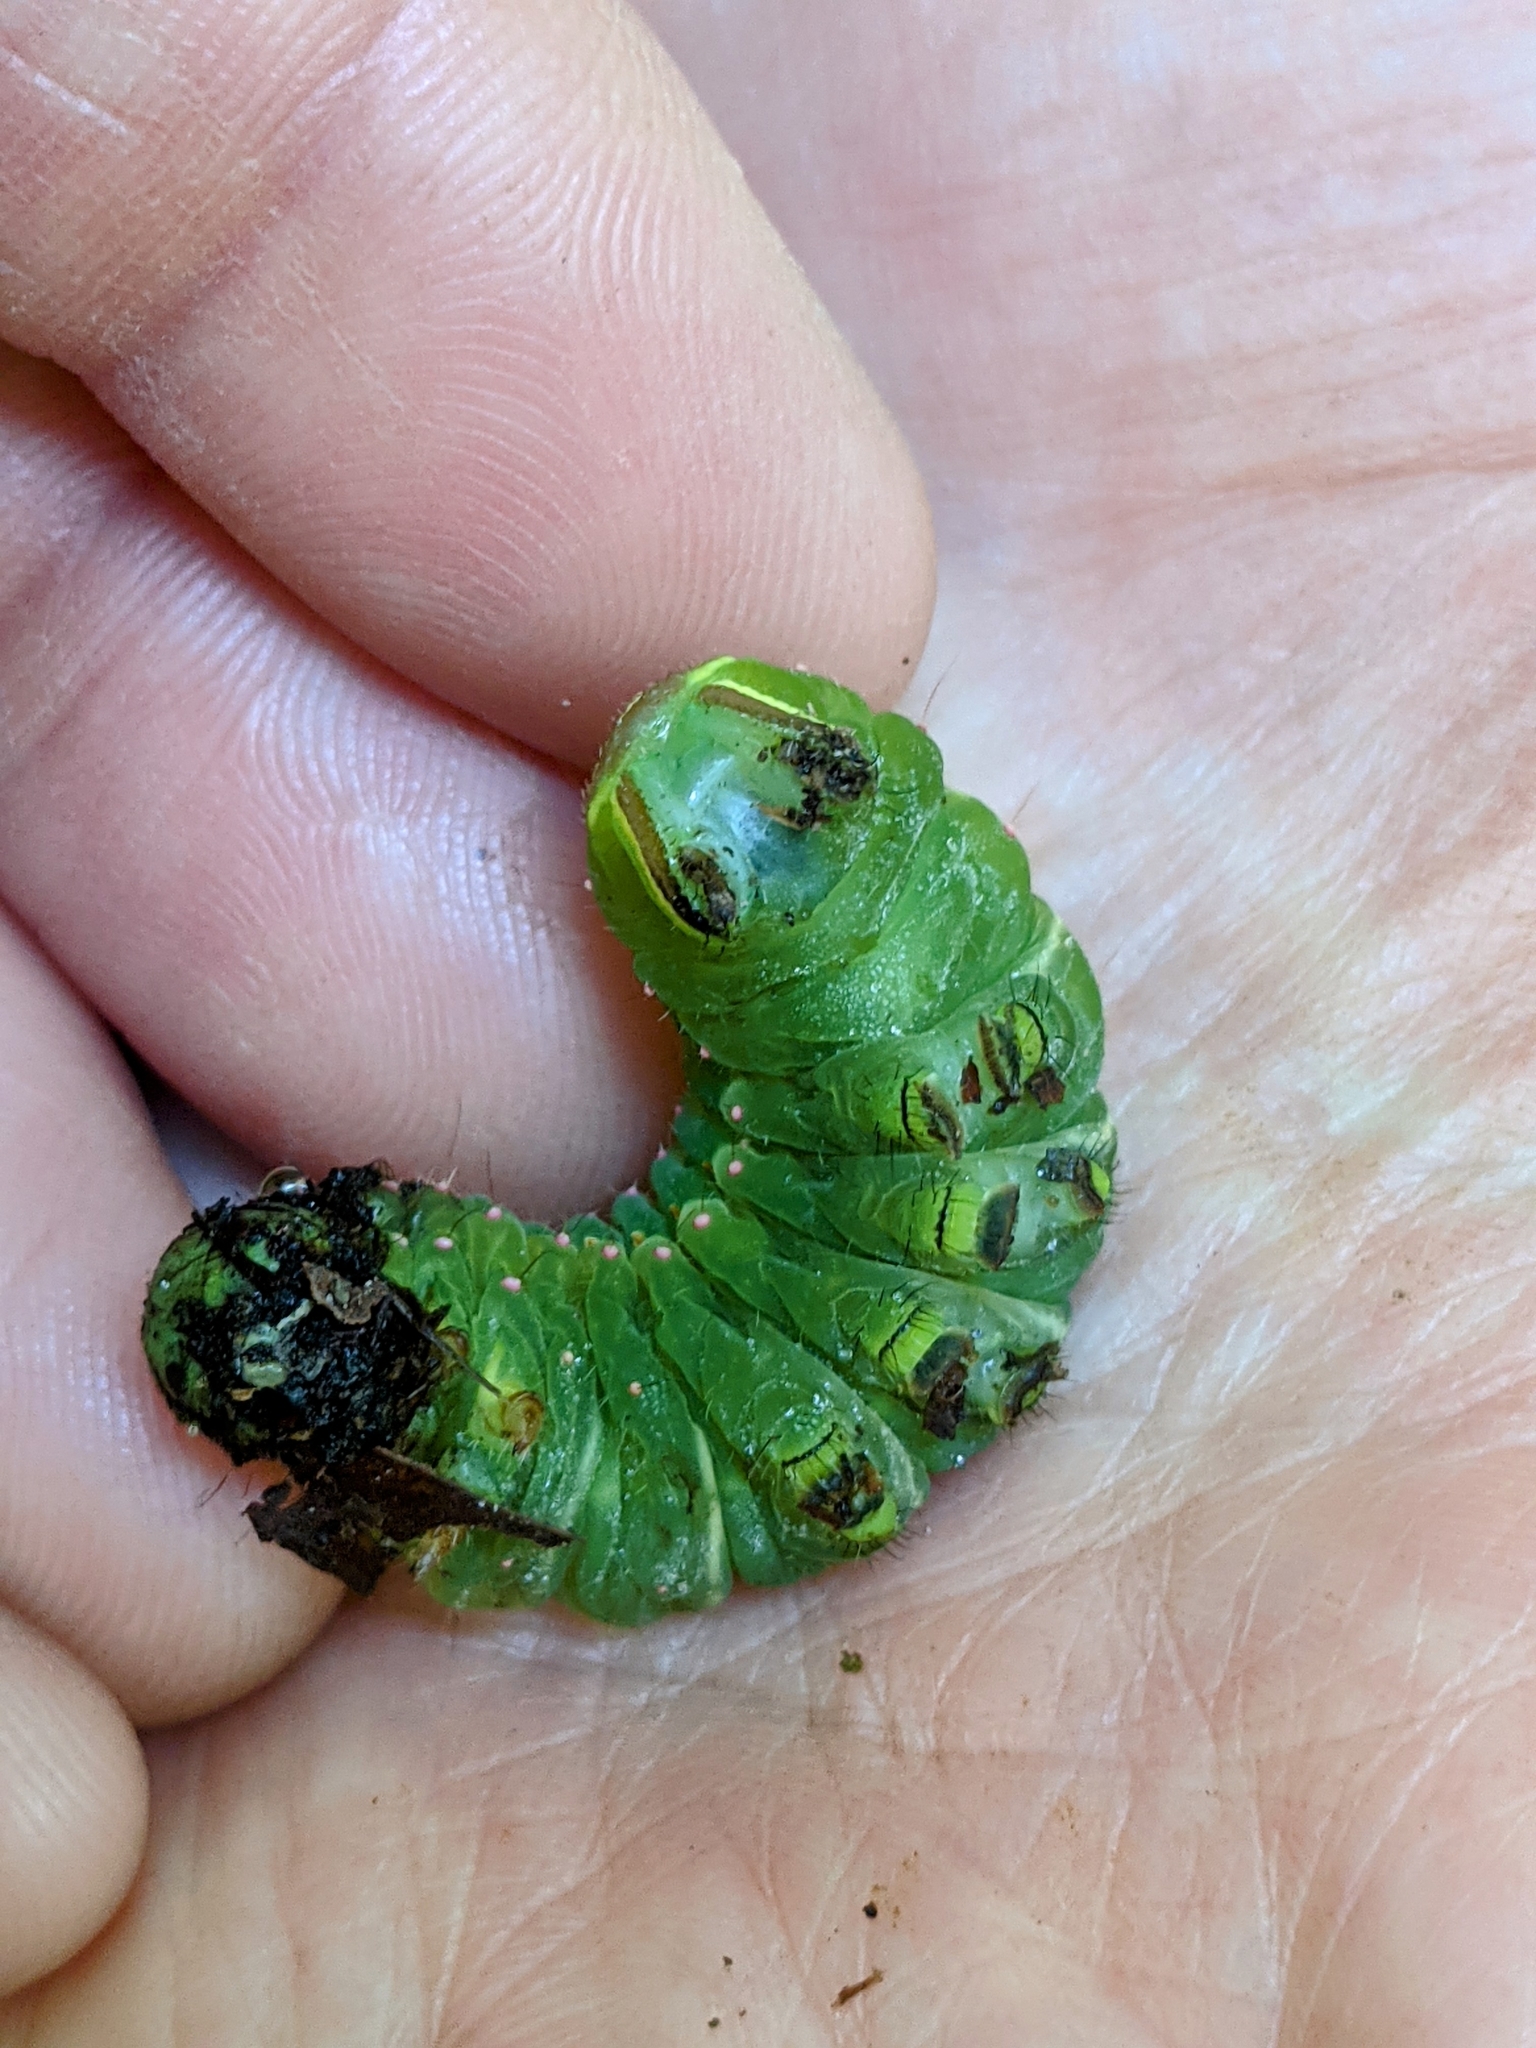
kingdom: Animalia
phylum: Arthropoda
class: Insecta
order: Lepidoptera
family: Saturniidae
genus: Actias
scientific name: Actias luna
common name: Luna moth
